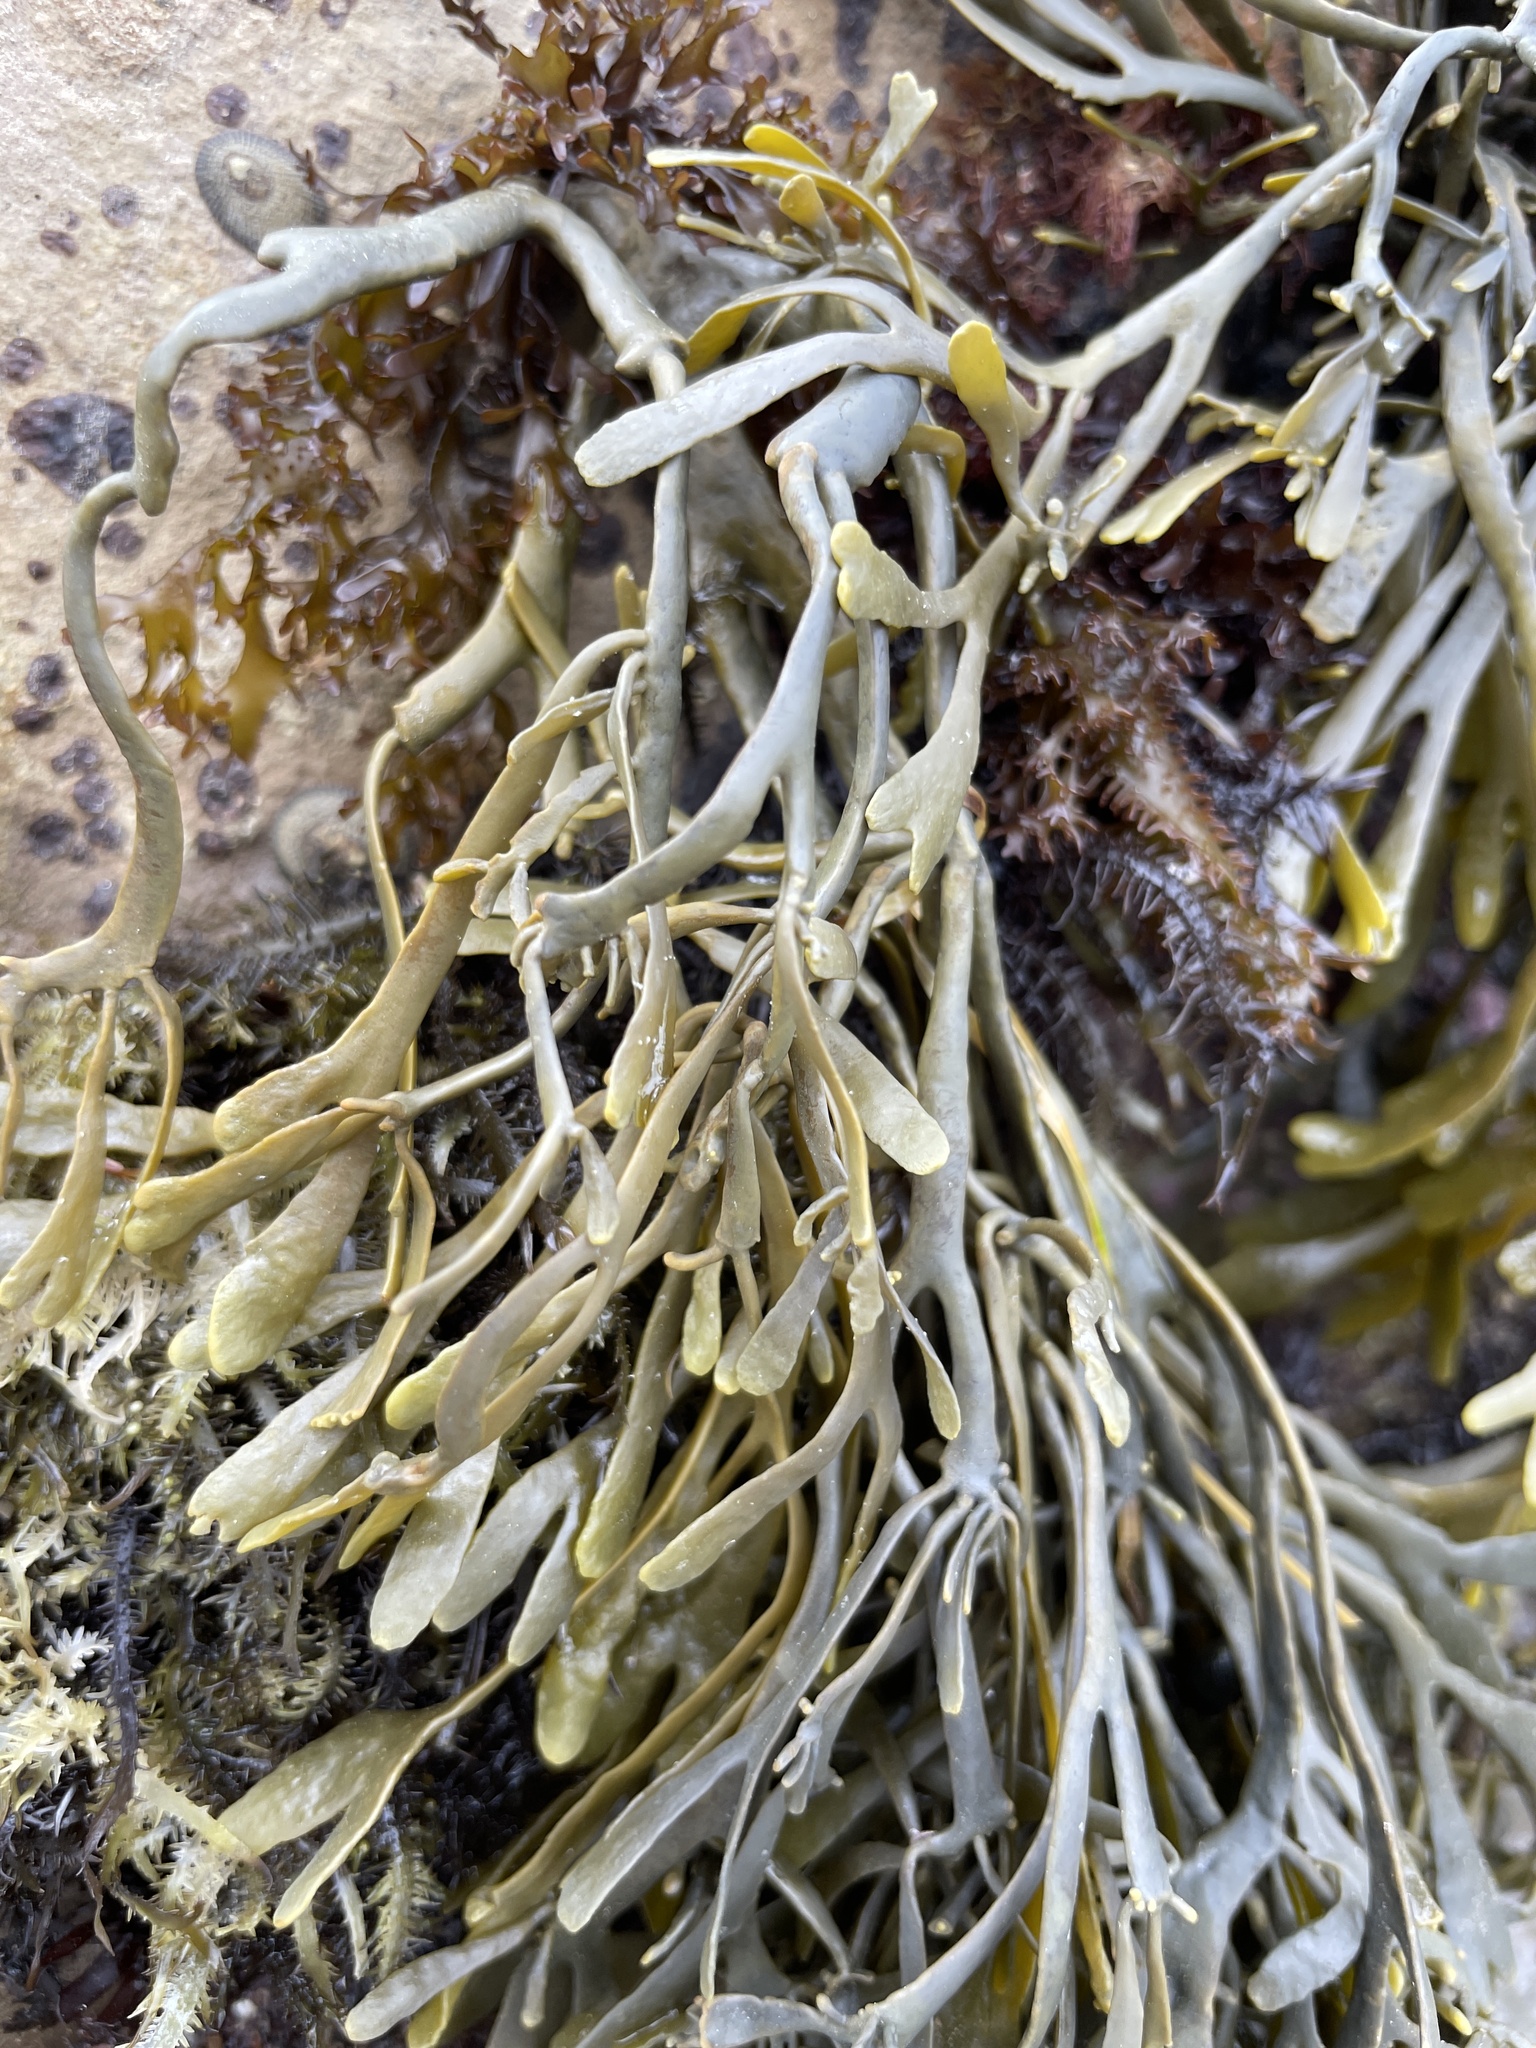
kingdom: Chromista
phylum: Ochrophyta
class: Phaeophyceae
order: Fucales
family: Fucaceae
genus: Silvetia
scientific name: Silvetia
